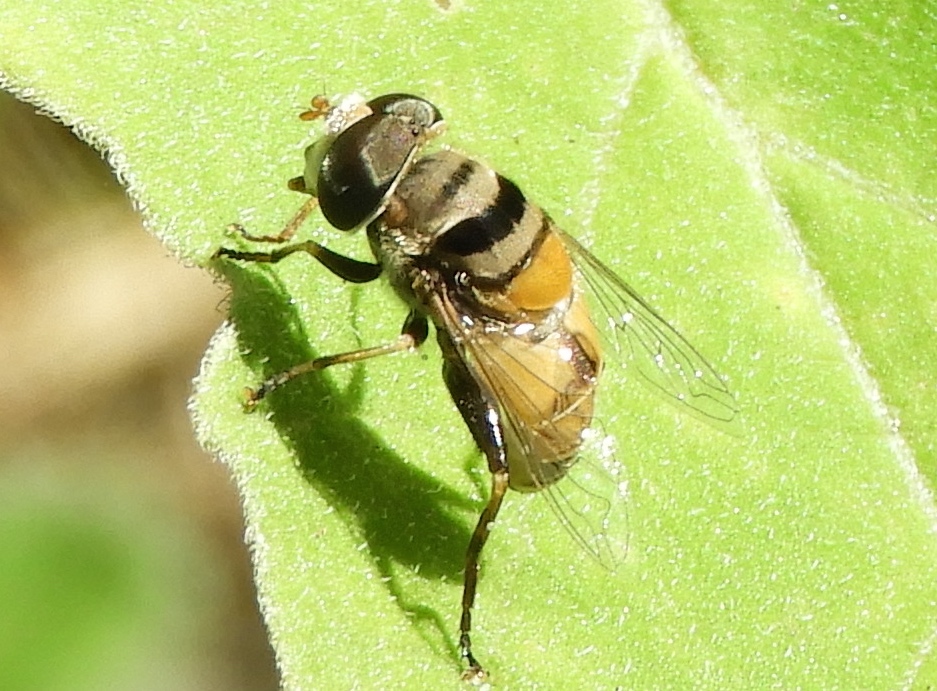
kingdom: Animalia
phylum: Arthropoda
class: Insecta
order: Diptera
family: Syrphidae
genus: Palpada
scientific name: Palpada
